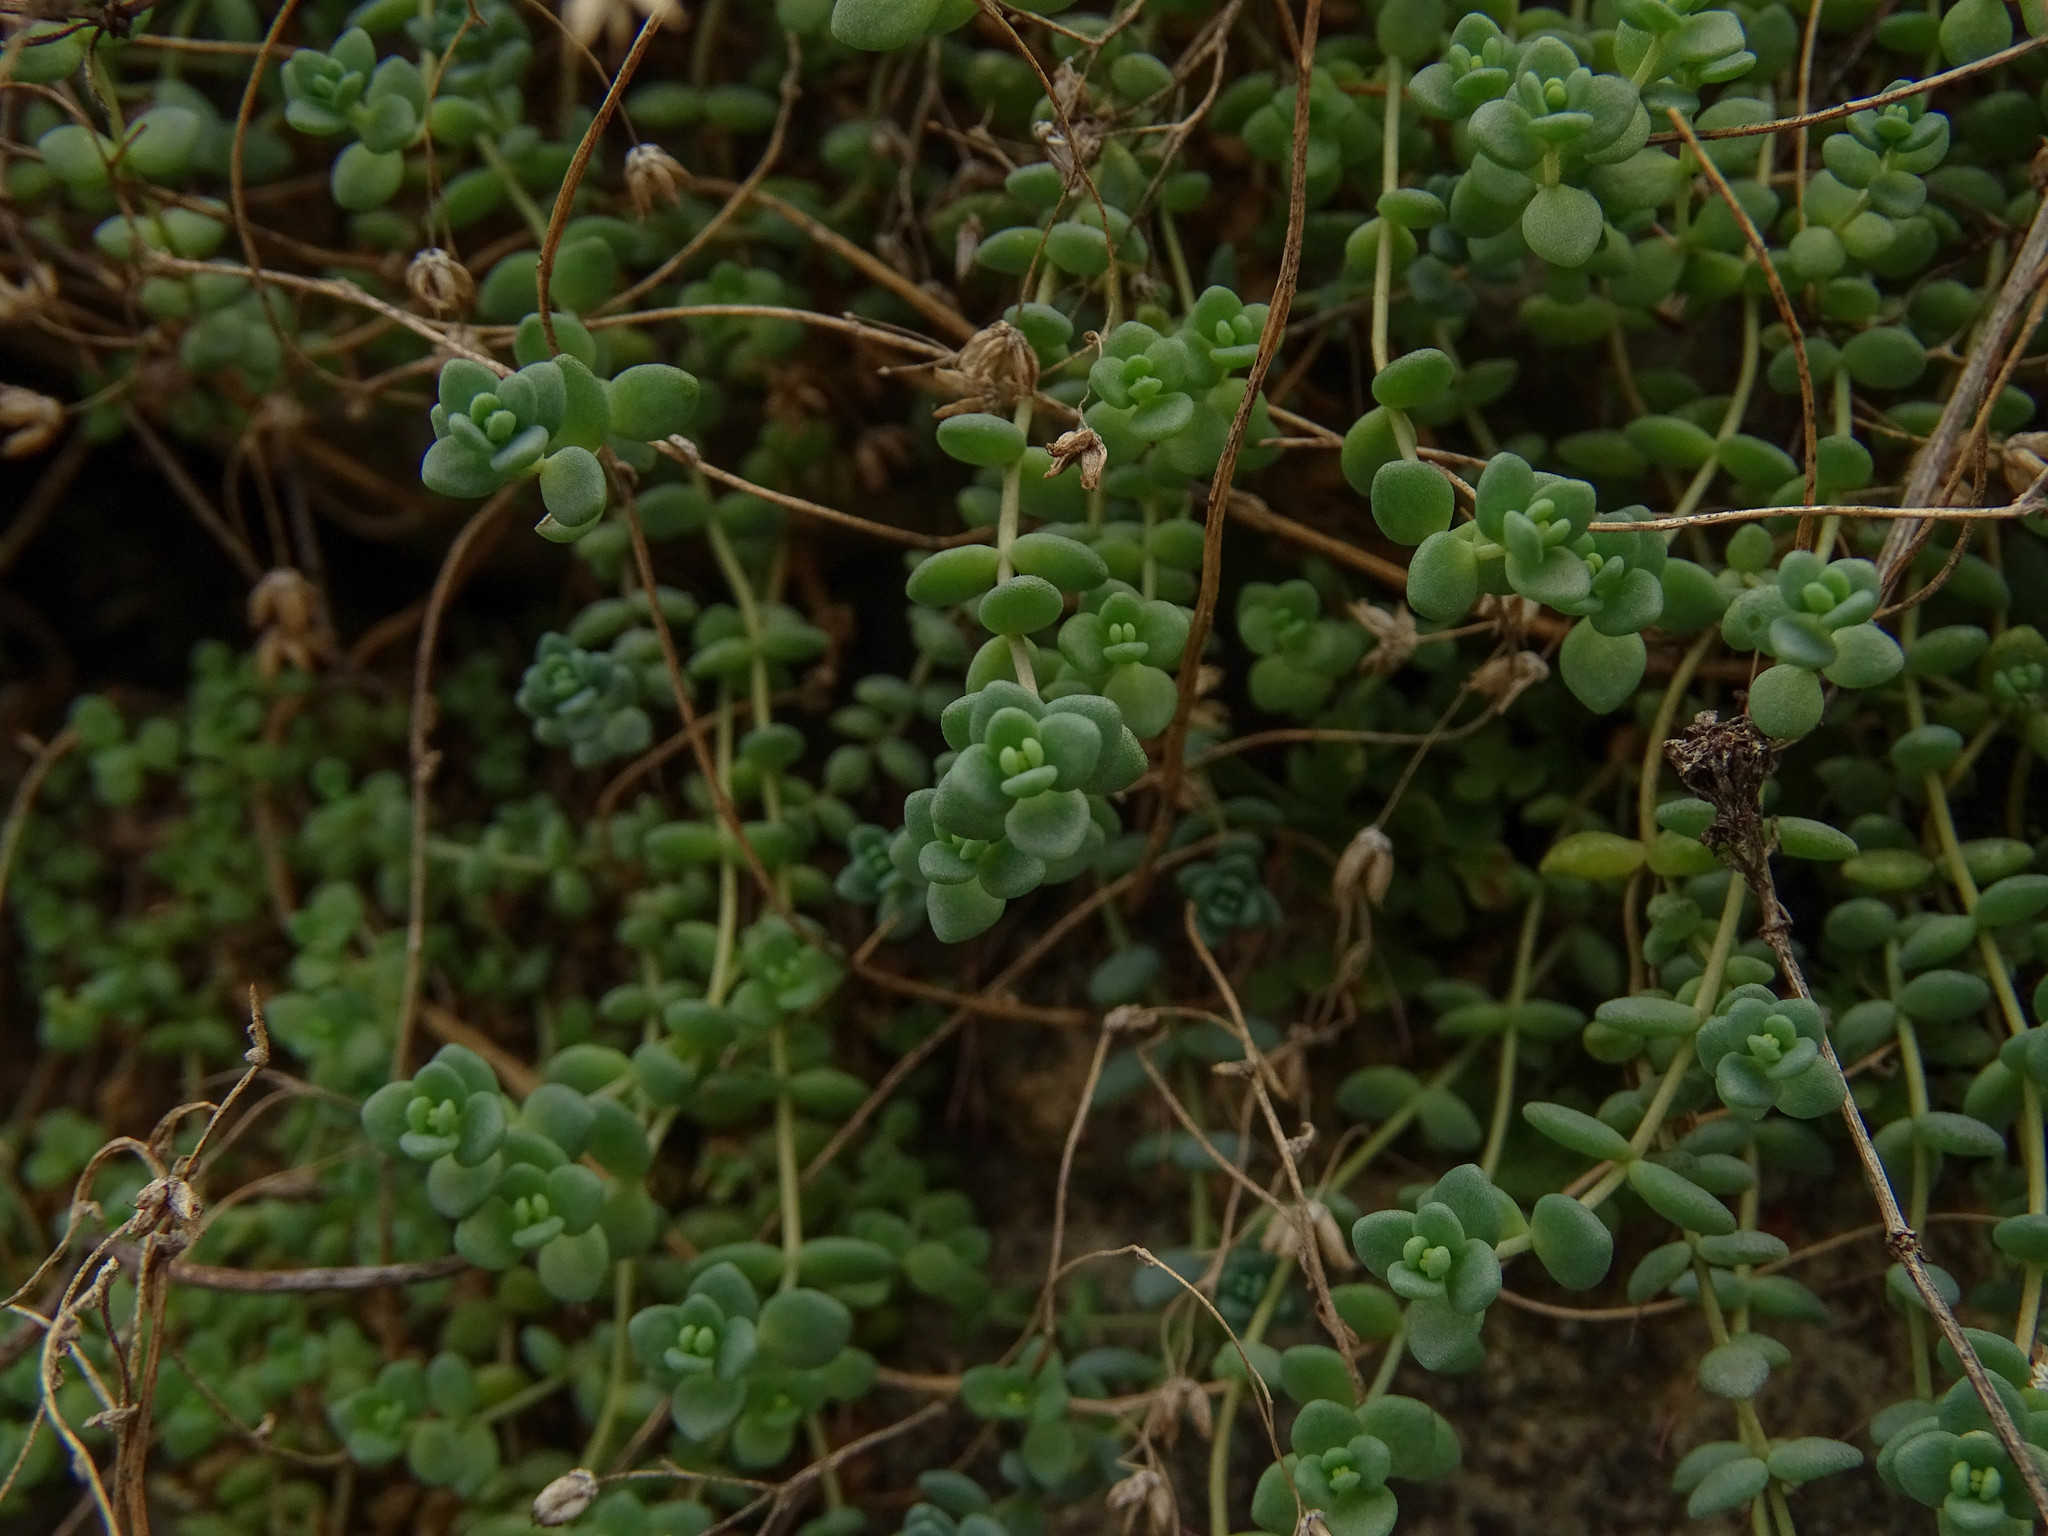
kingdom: Plantae
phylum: Tracheophyta
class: Magnoliopsida
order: Saxifragales
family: Crassulaceae
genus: Sedum
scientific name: Sedum dasyphyllum
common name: Thick-leaf stonecrop
